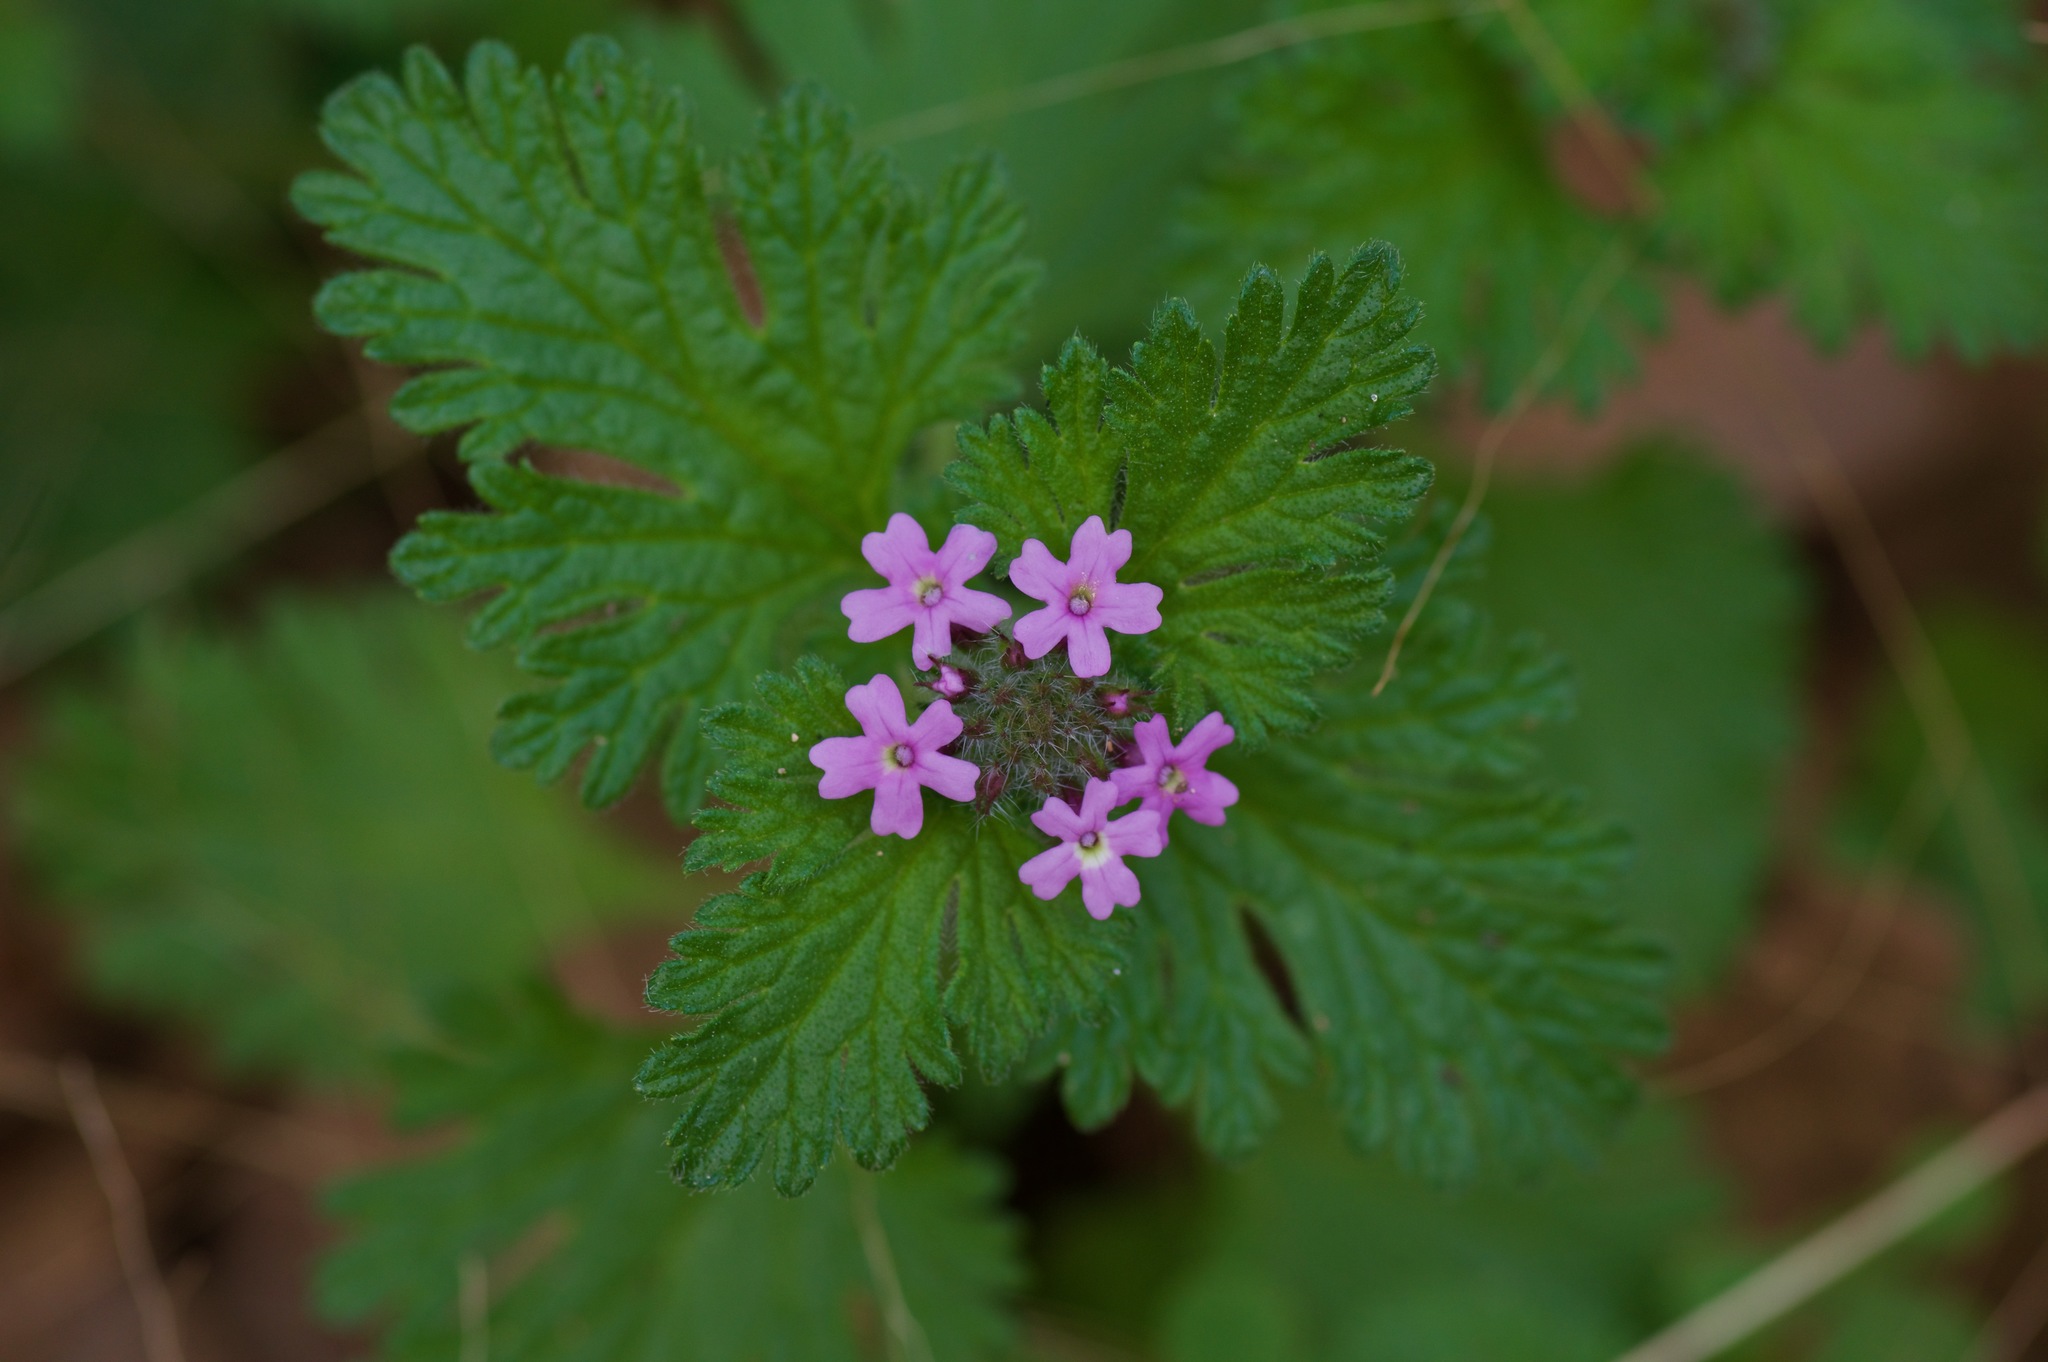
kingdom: Plantae
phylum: Tracheophyta
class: Magnoliopsida
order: Lamiales
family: Verbenaceae
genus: Verbena
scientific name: Verbena pumila
